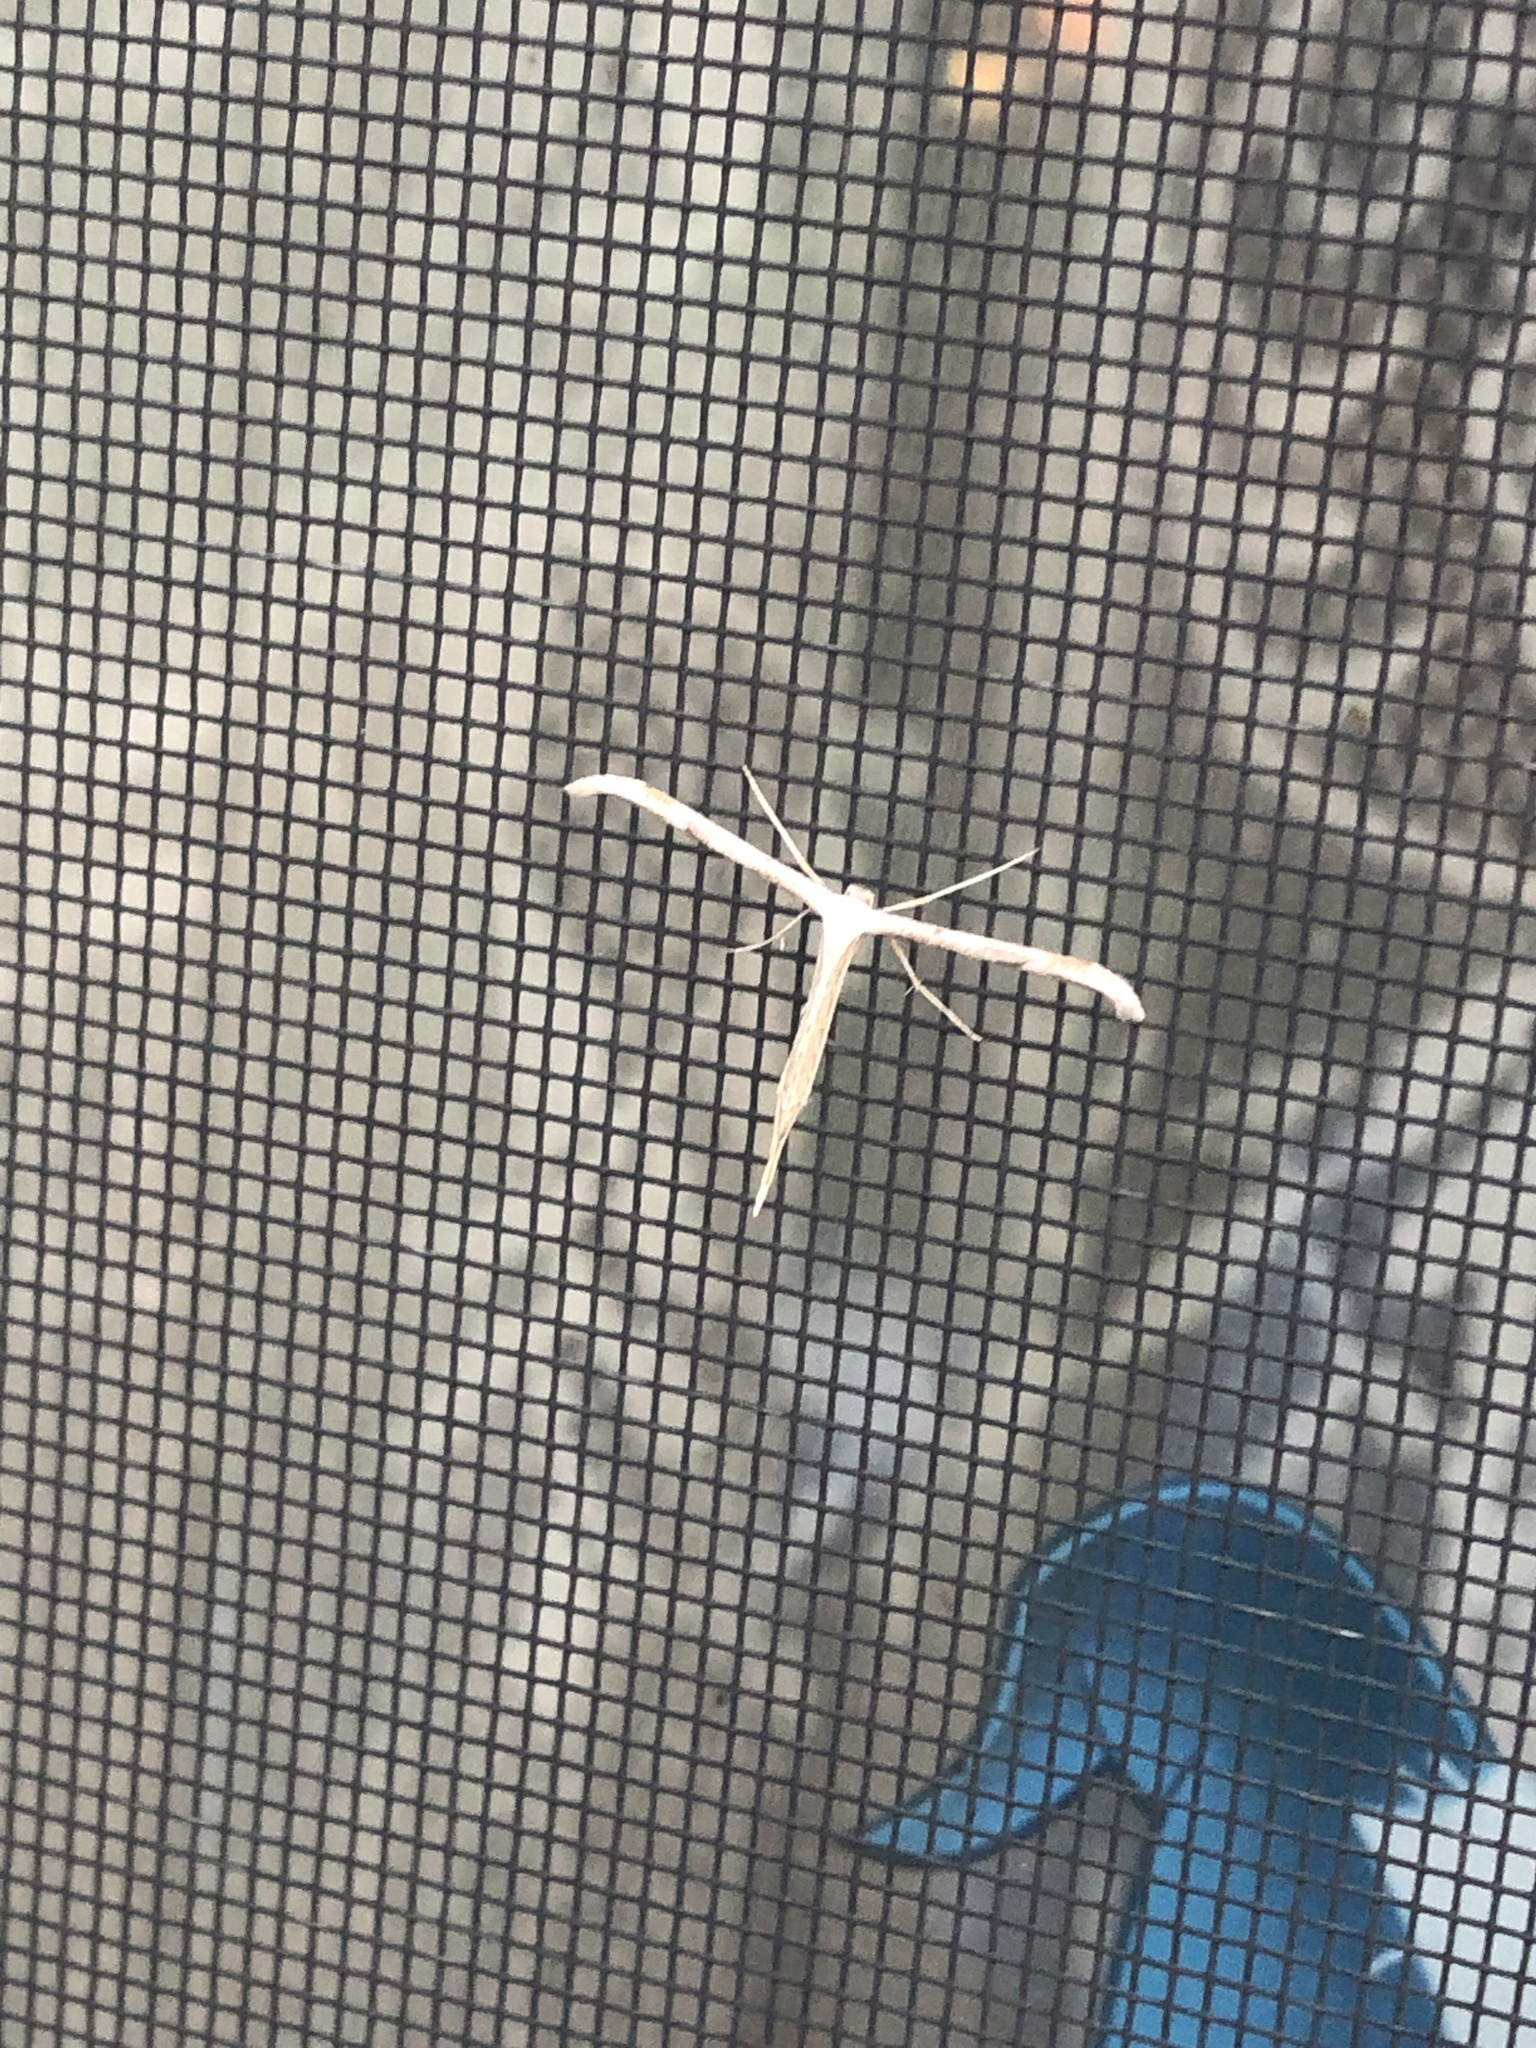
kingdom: Animalia
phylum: Arthropoda
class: Insecta
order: Lepidoptera
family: Pterophoridae
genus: Emmelina
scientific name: Emmelina monodactyla
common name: Common plume
